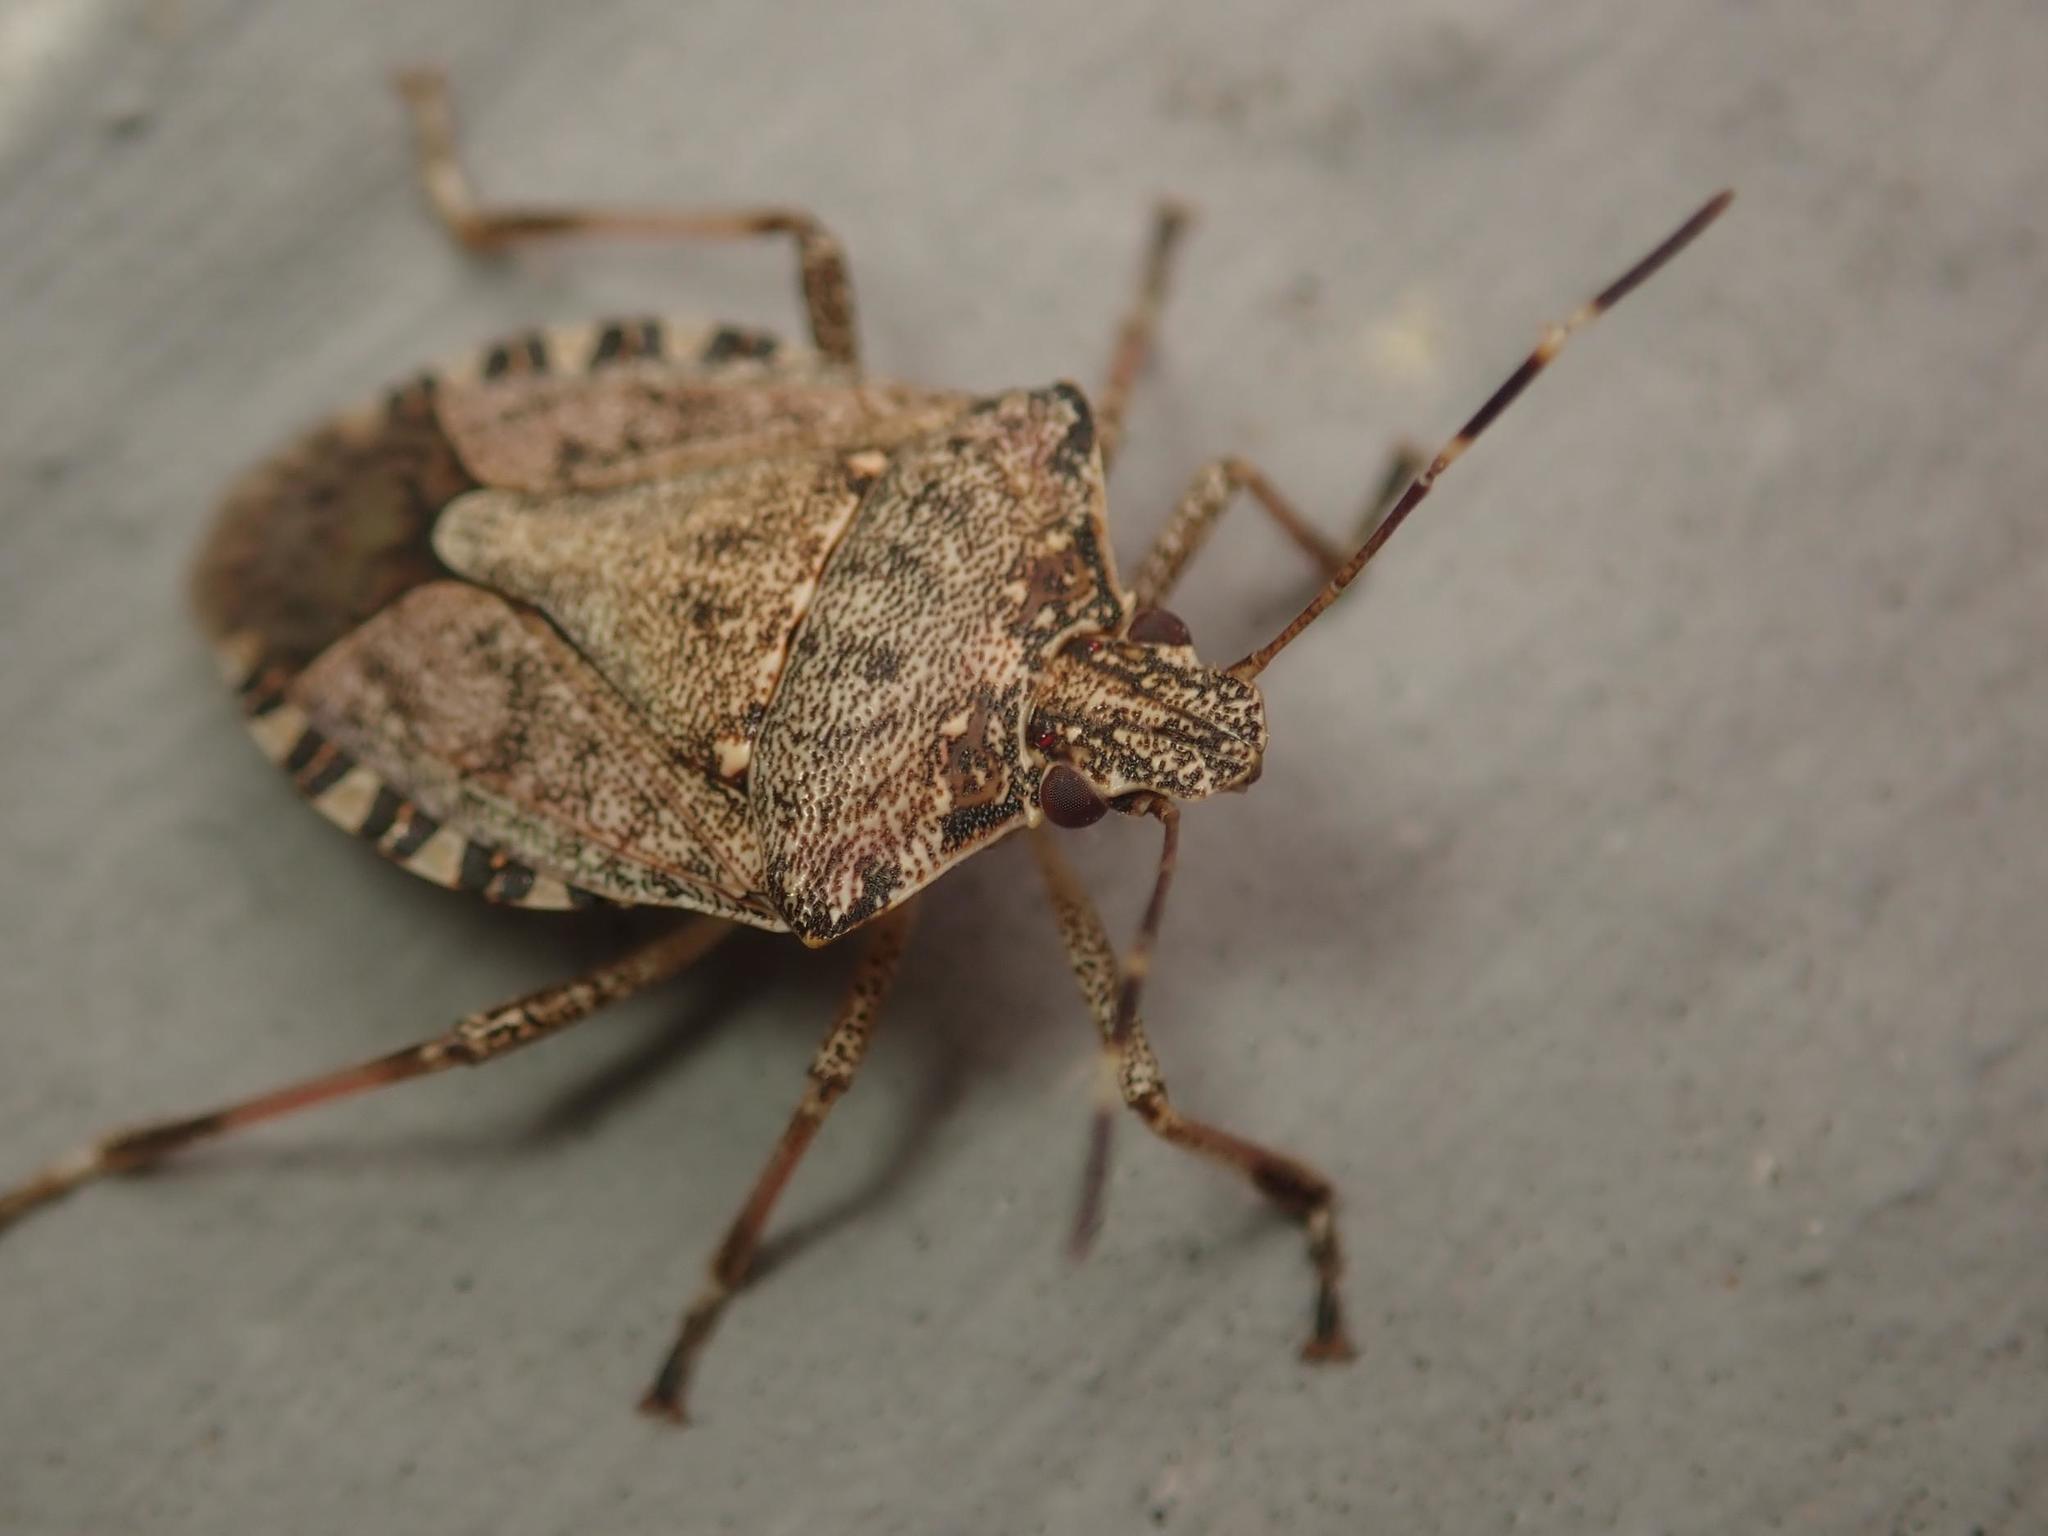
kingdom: Animalia
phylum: Arthropoda
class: Insecta
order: Hemiptera
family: Pentatomidae
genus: Halyomorpha
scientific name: Halyomorpha halys
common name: Brown marmorated stink bug
